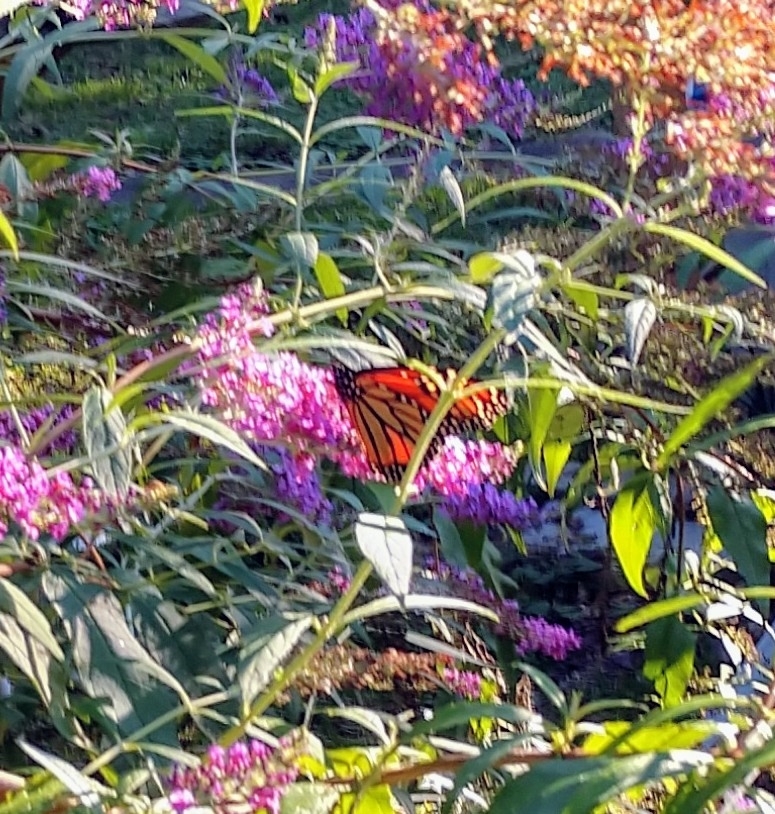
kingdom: Animalia
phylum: Arthropoda
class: Insecta
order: Lepidoptera
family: Nymphalidae
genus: Danaus
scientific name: Danaus plexippus
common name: Monarch
